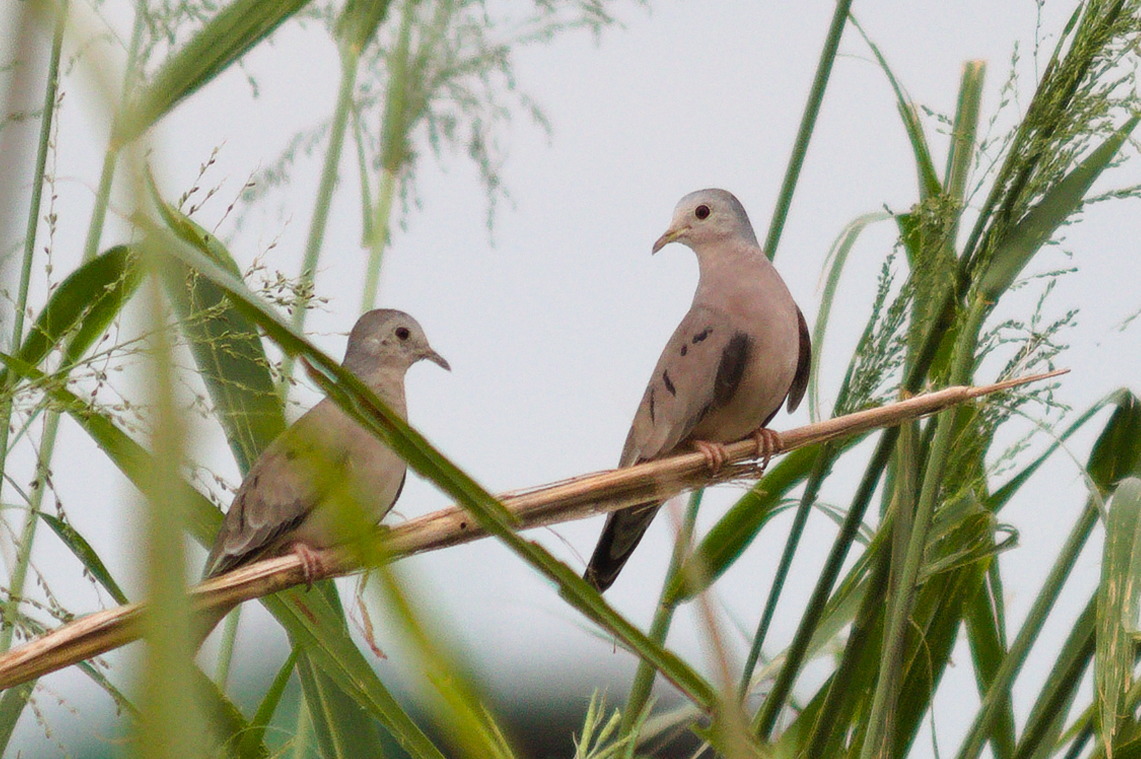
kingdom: Animalia
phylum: Chordata
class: Aves
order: Columbiformes
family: Columbidae
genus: Columbina
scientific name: Columbina minuta
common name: Plain-breasted ground dove
